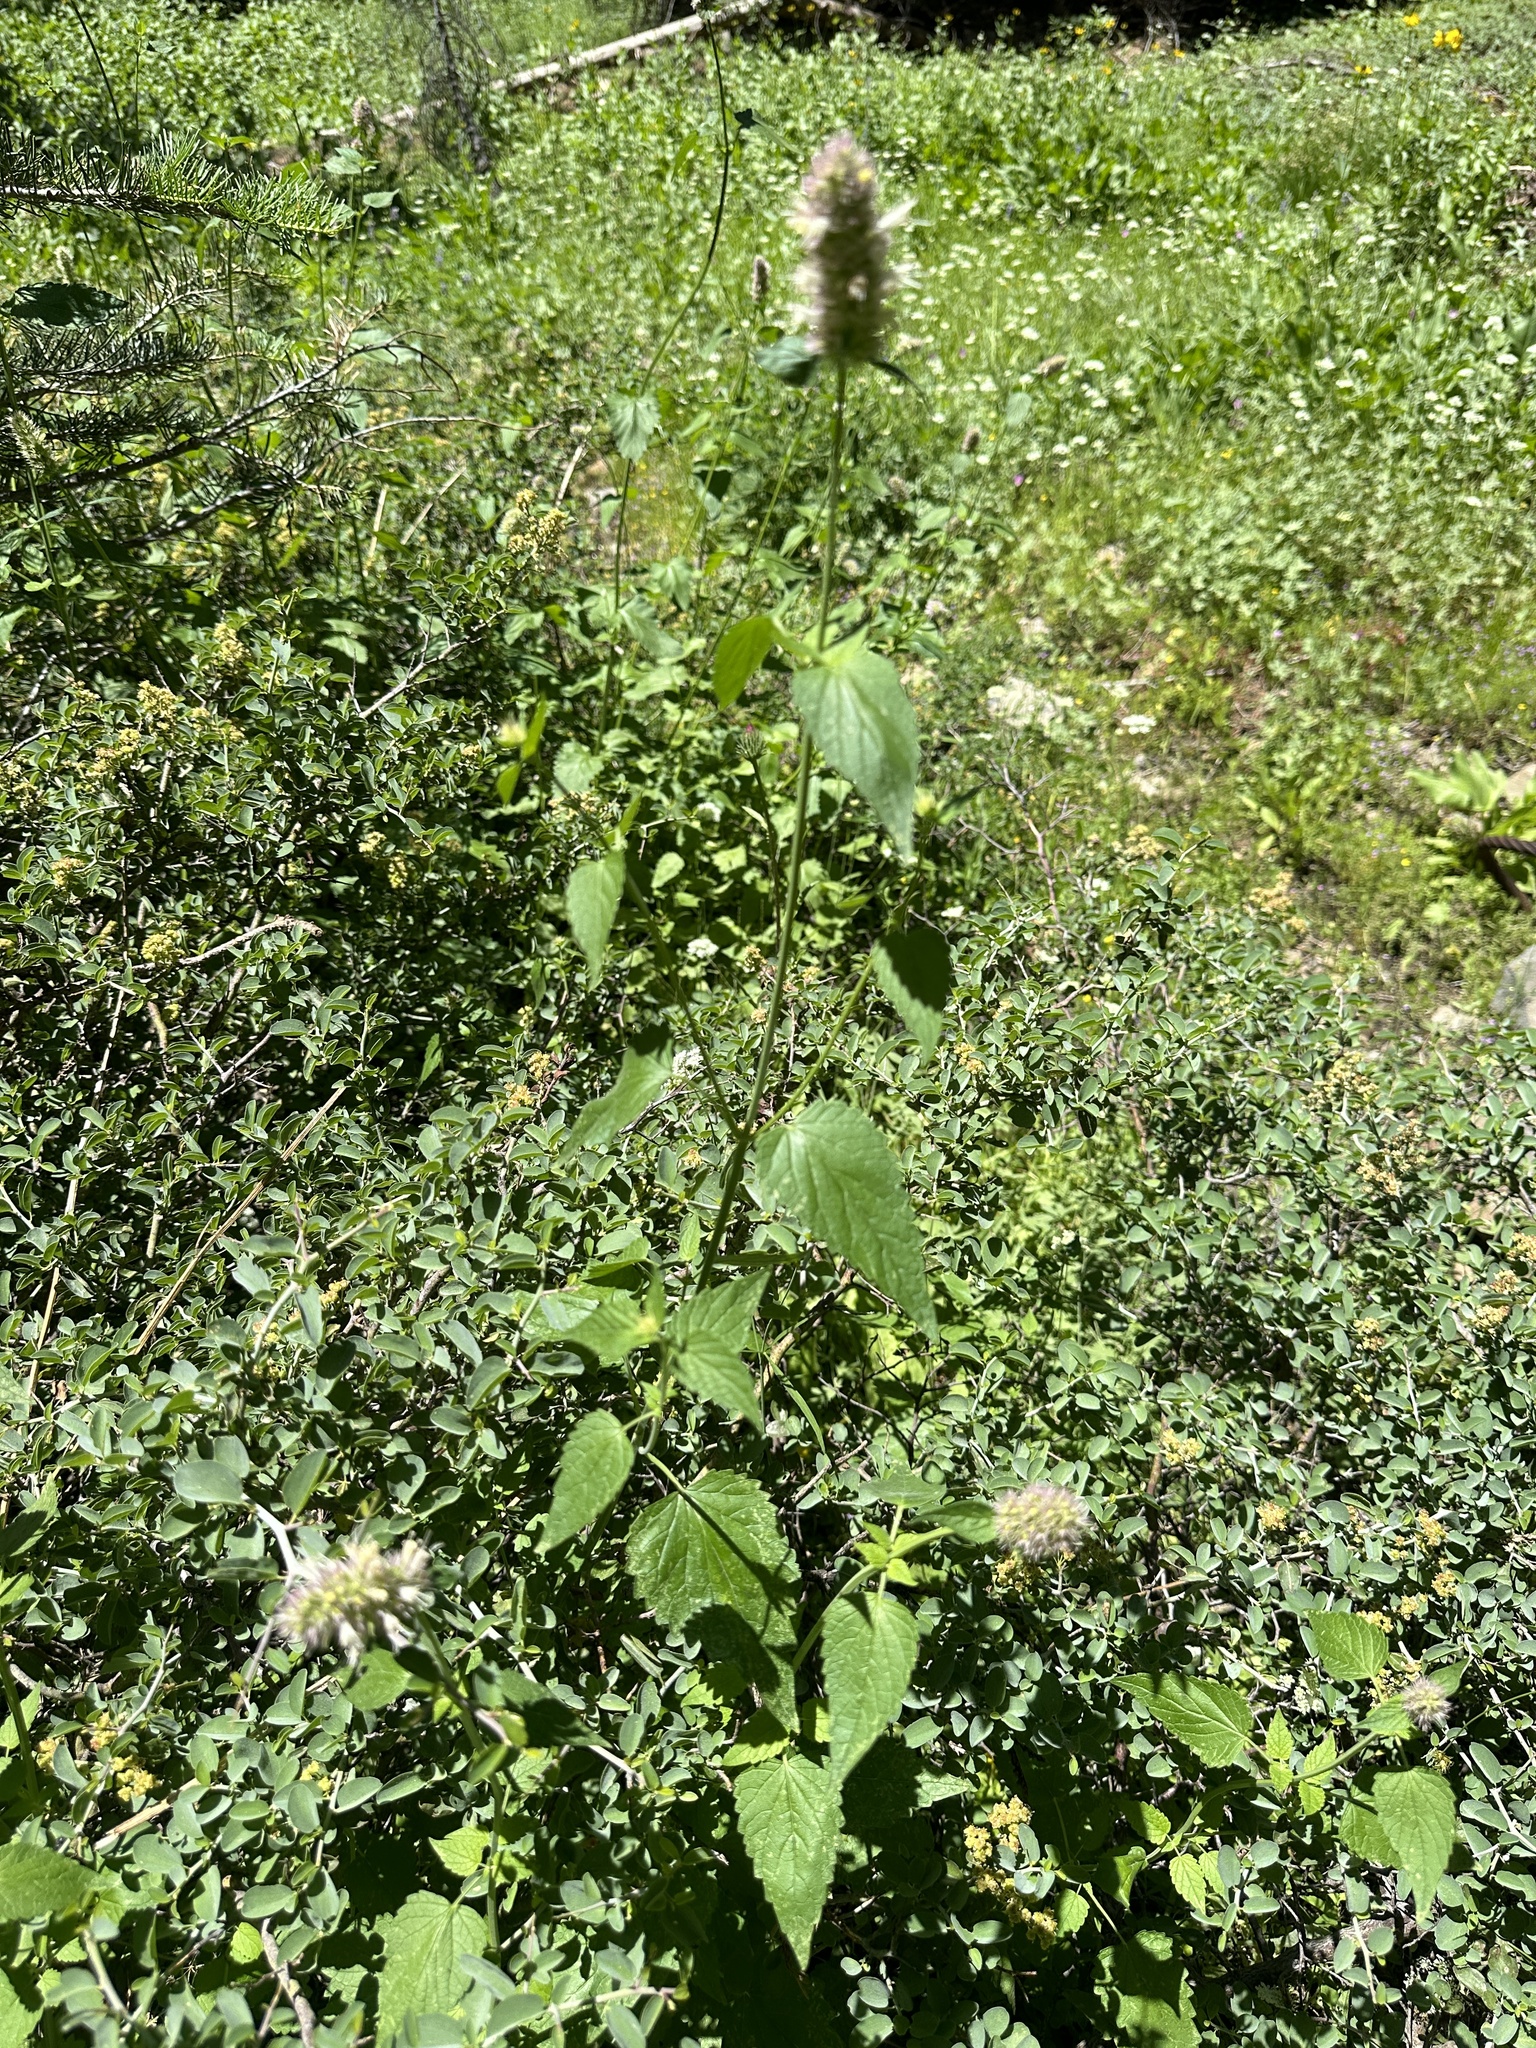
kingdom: Plantae
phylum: Tracheophyta
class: Magnoliopsida
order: Lamiales
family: Lamiaceae
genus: Agastache
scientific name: Agastache urticifolia
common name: Horsemint giant hyssop
